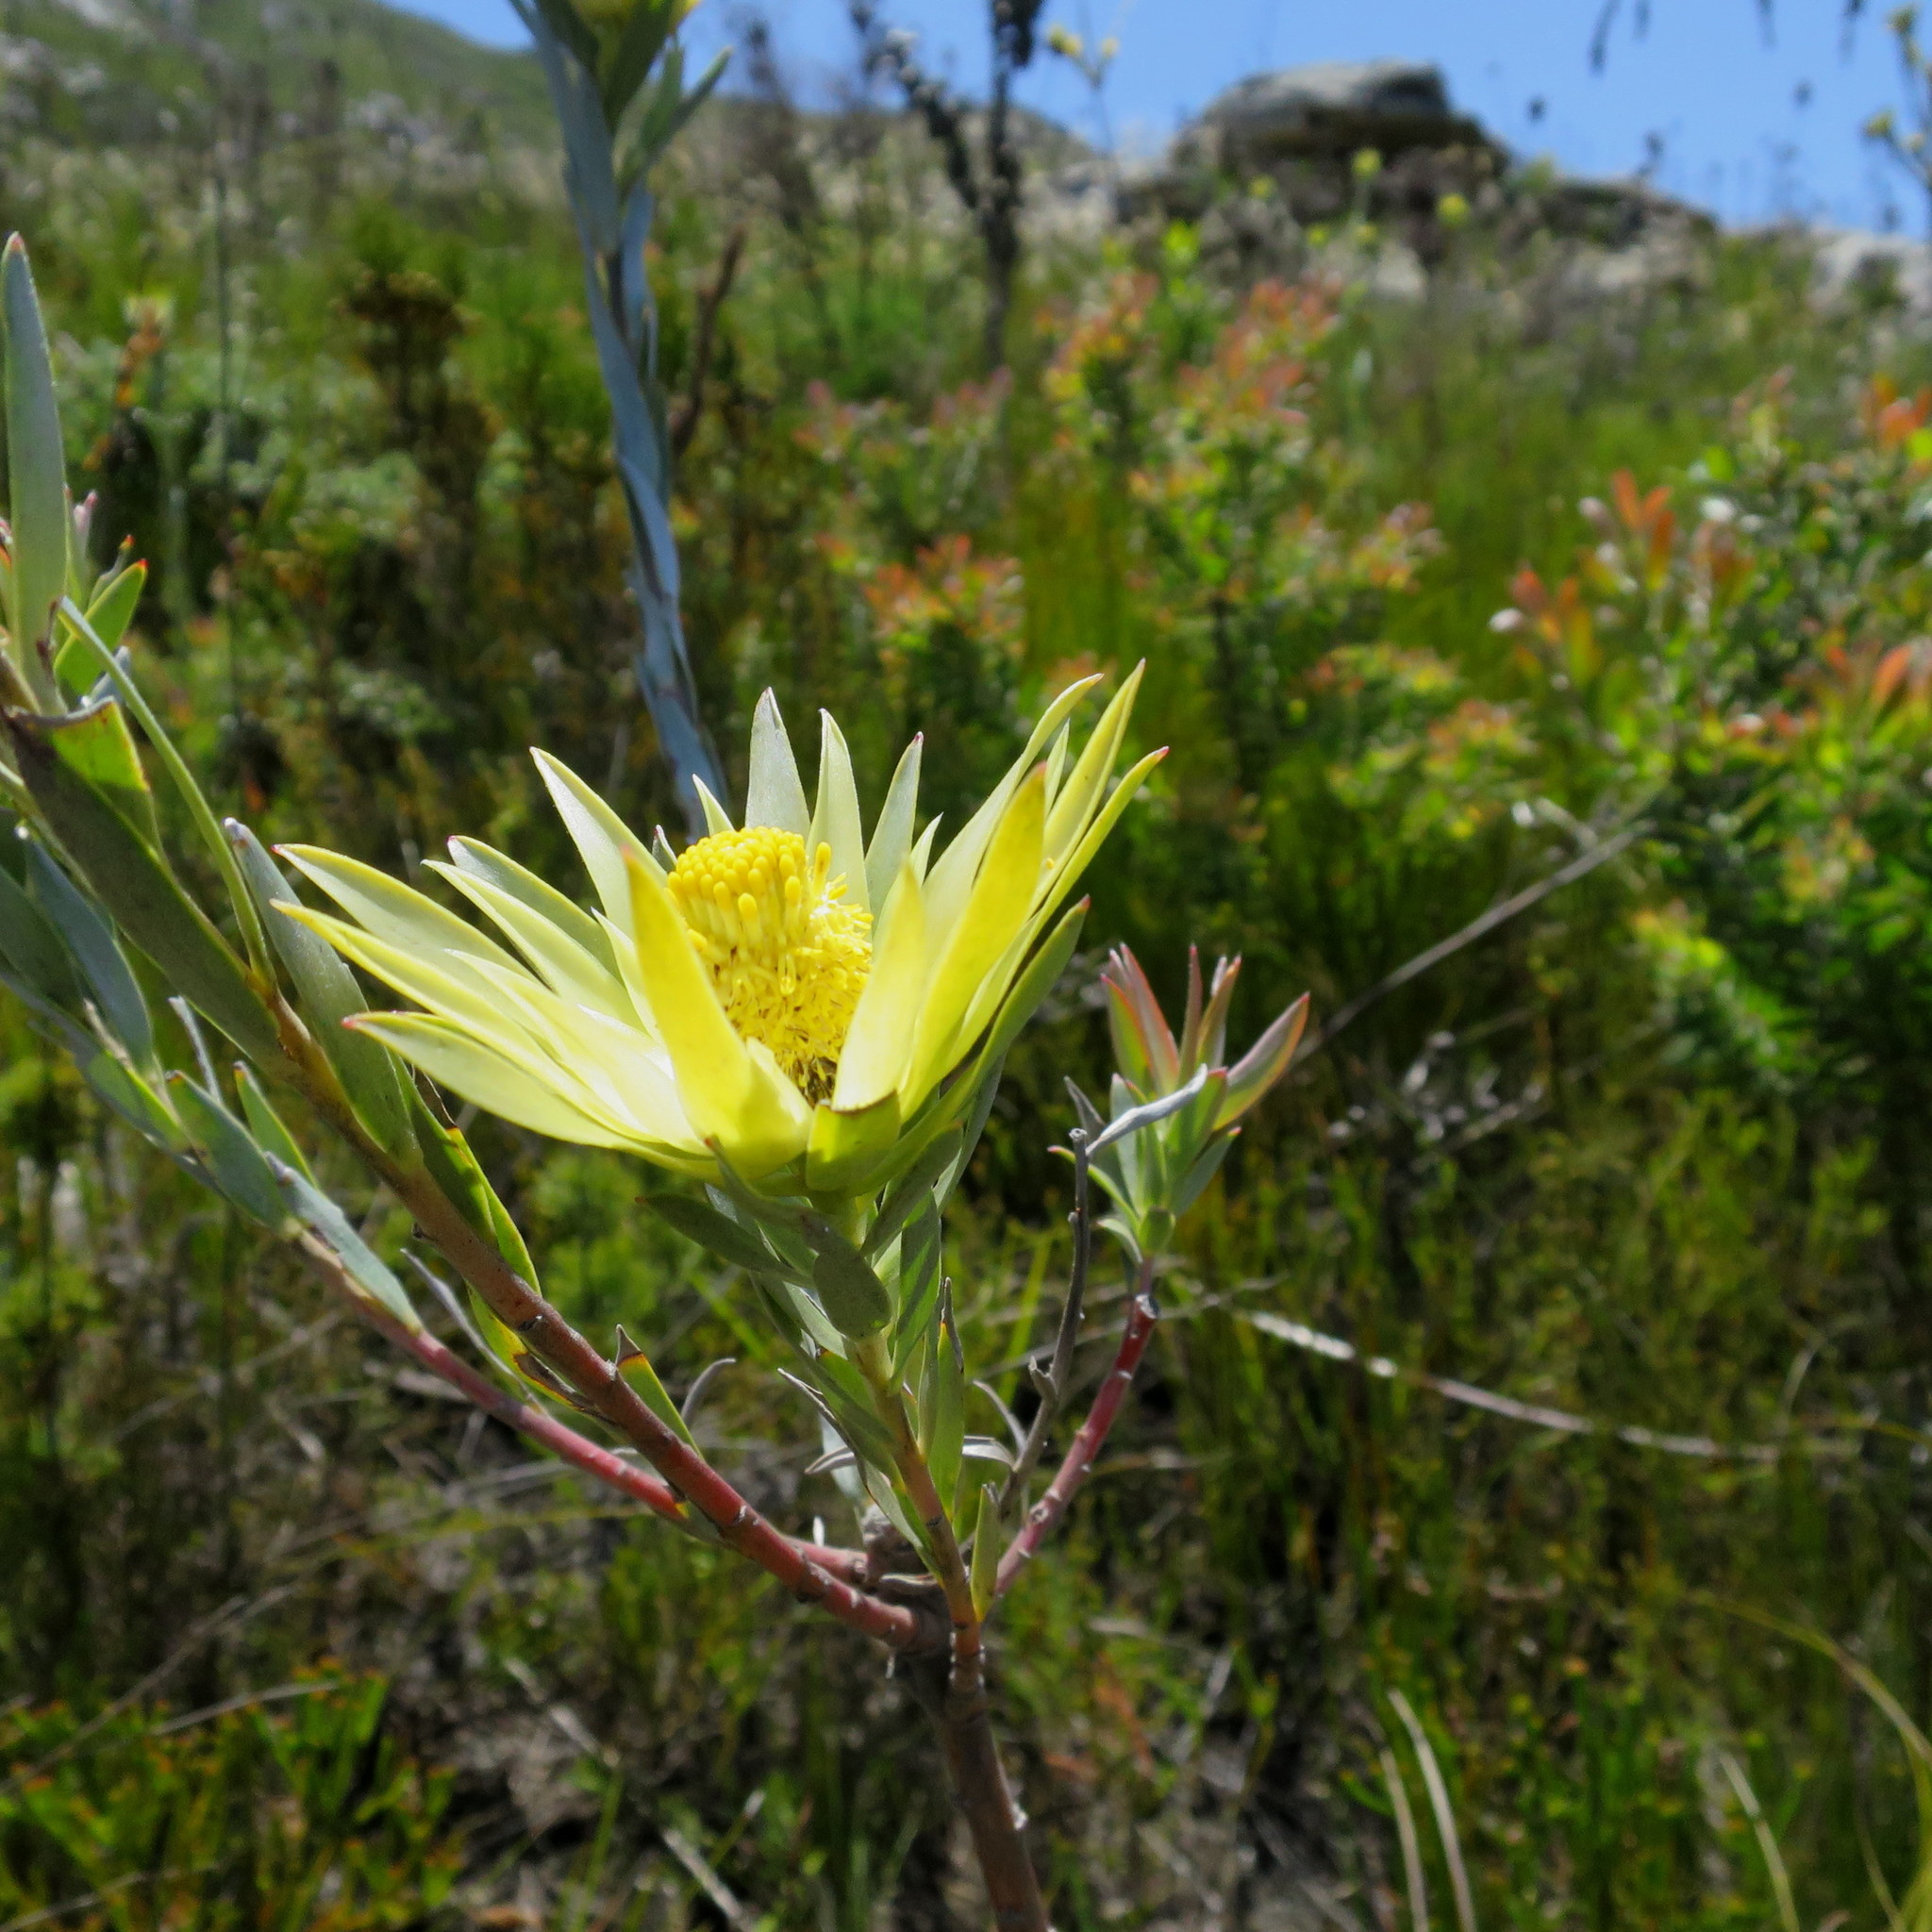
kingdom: Plantae
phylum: Tracheophyta
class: Magnoliopsida
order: Proteales
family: Proteaceae
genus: Leucadendron
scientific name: Leucadendron uliginosum
